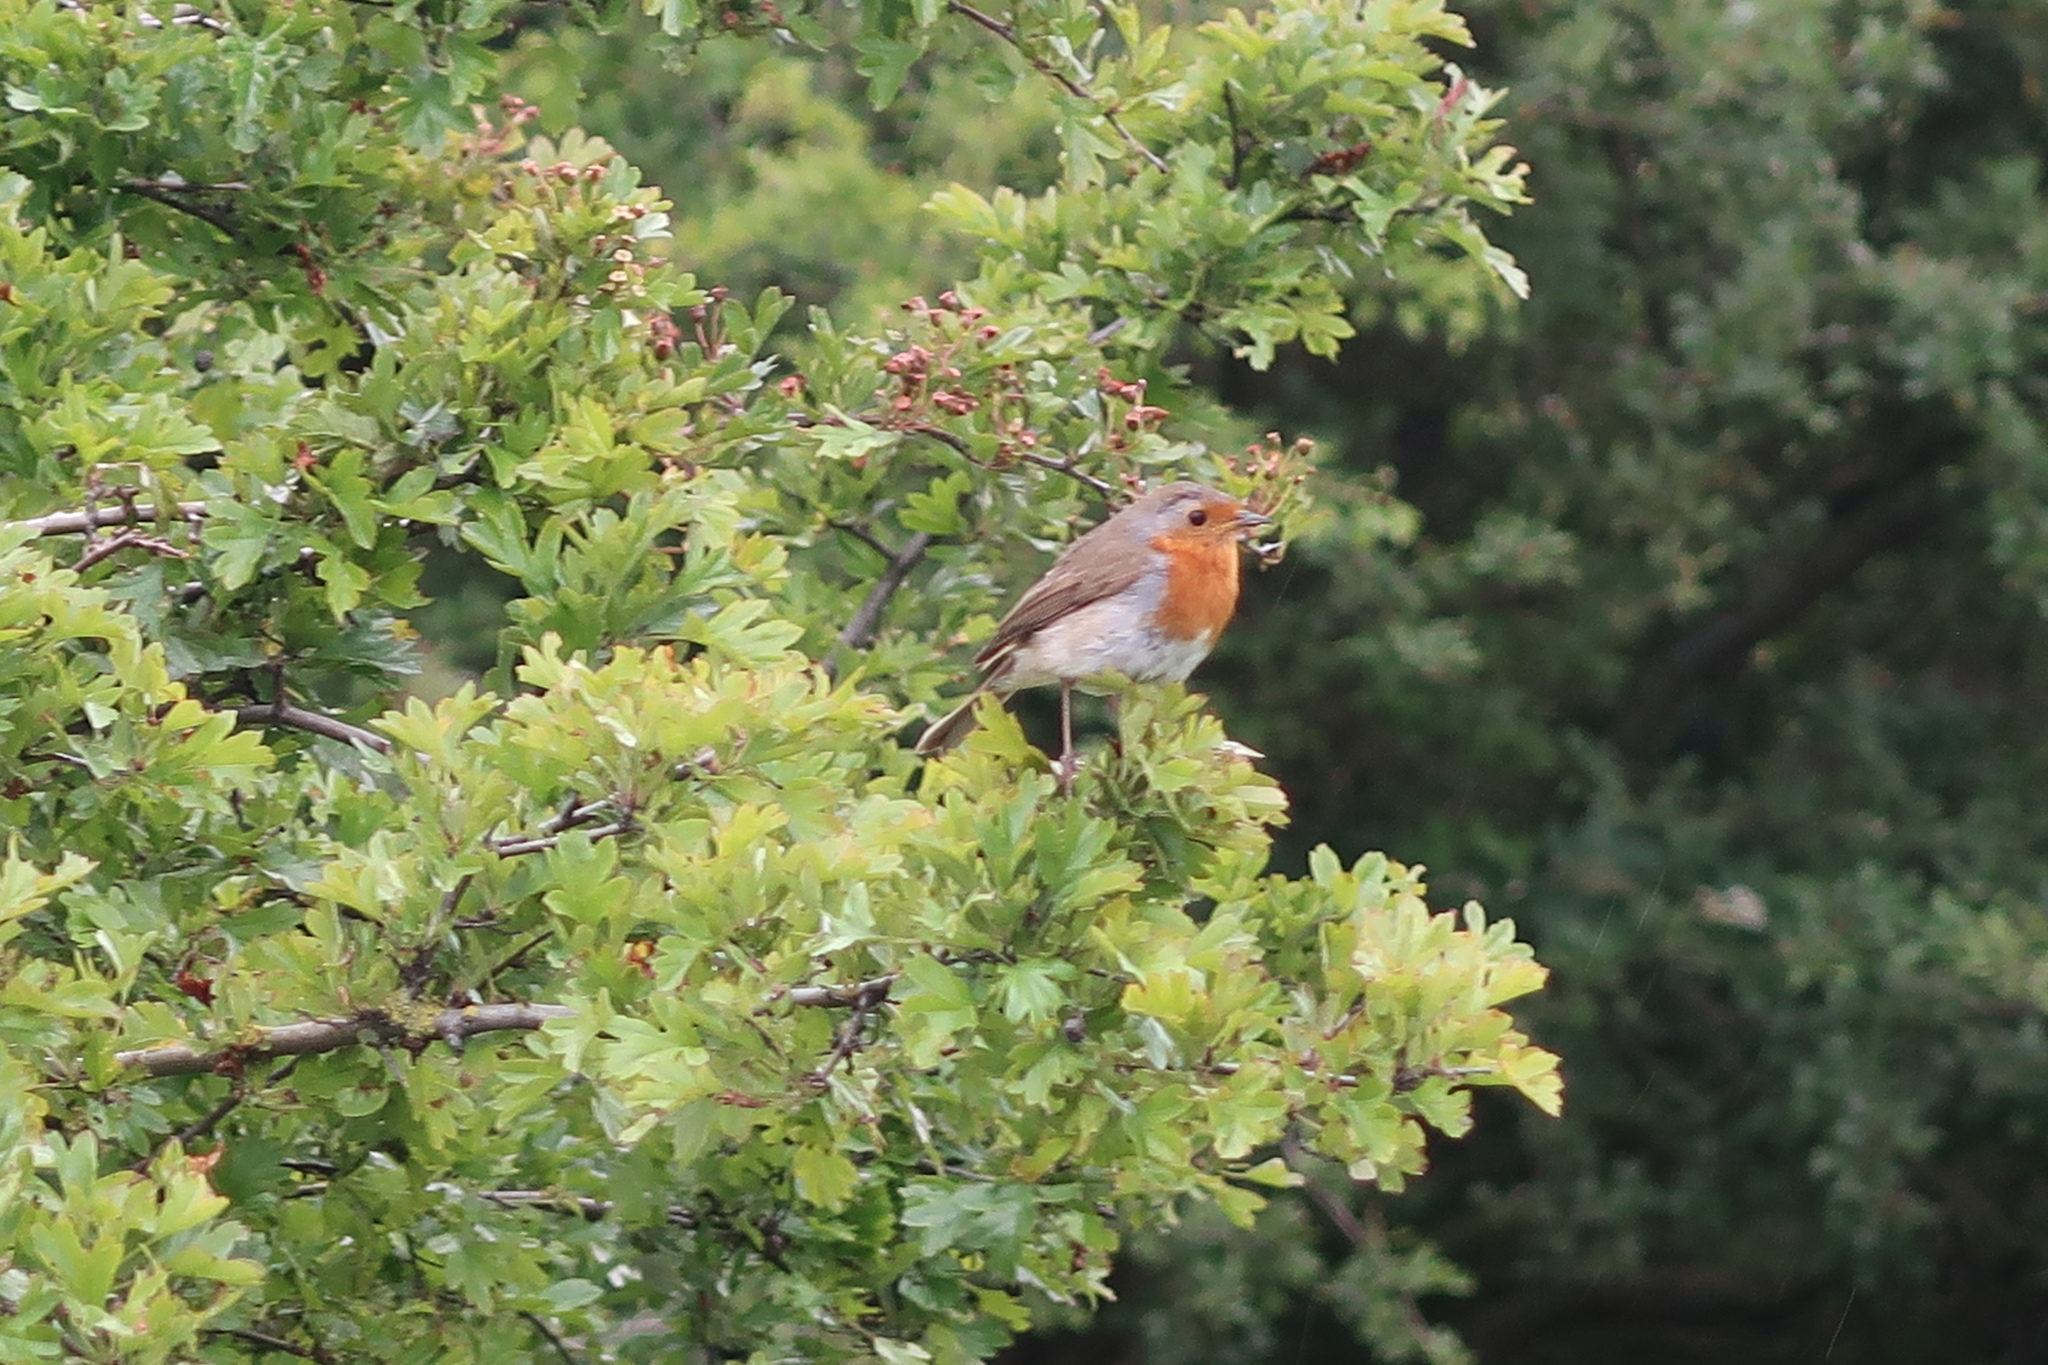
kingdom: Animalia
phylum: Chordata
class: Aves
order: Passeriformes
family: Muscicapidae
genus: Erithacus
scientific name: Erithacus rubecula
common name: European robin
